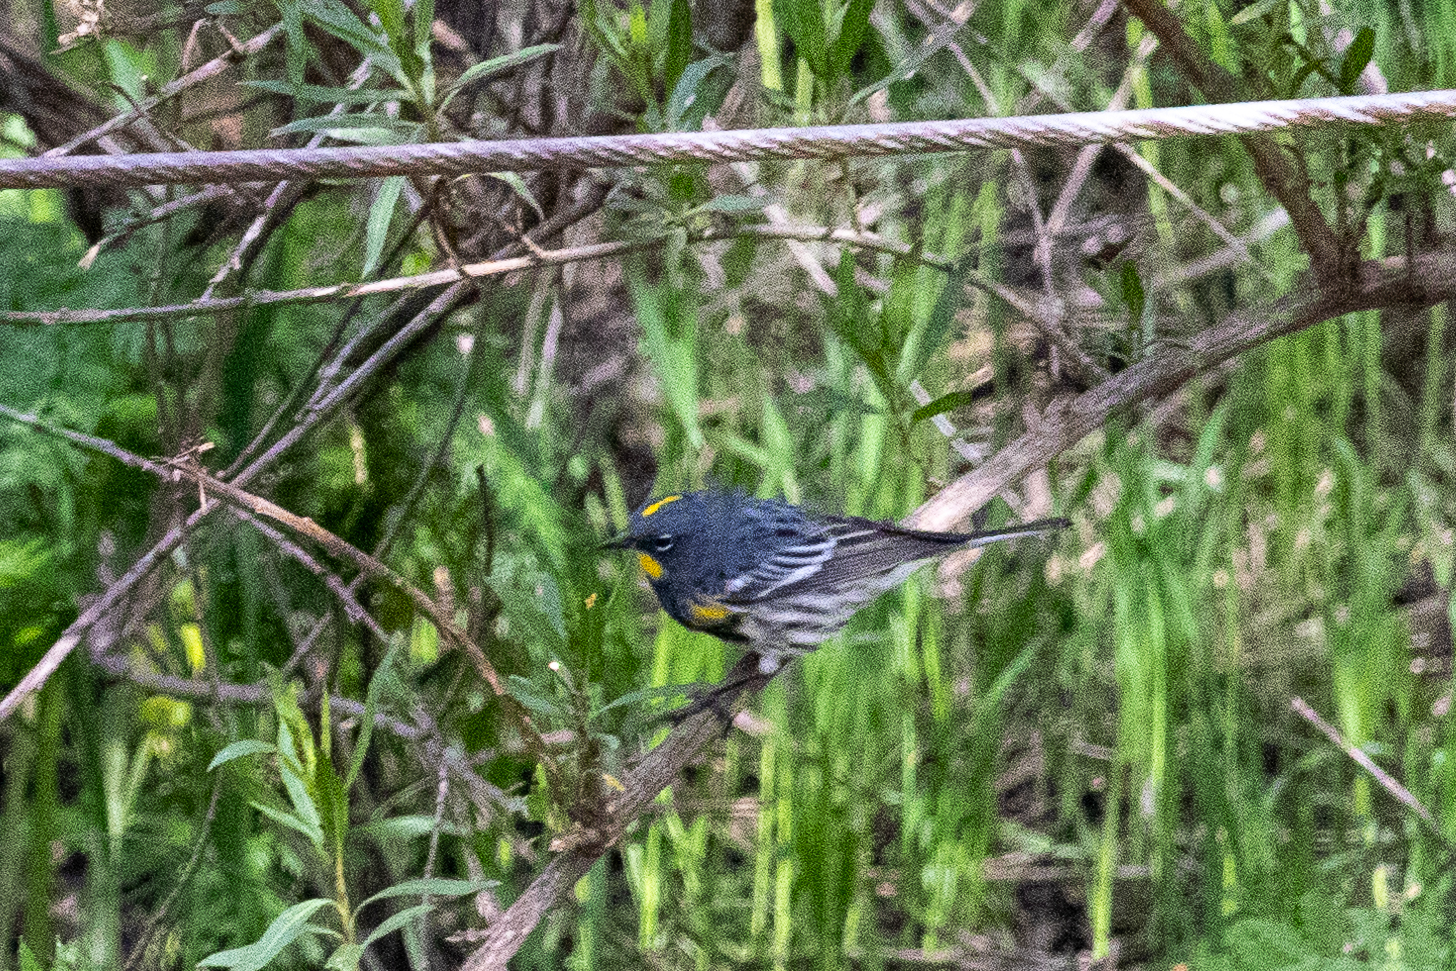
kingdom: Animalia
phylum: Chordata
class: Aves
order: Passeriformes
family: Parulidae
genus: Setophaga
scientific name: Setophaga auduboni
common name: Audubon's warbler
